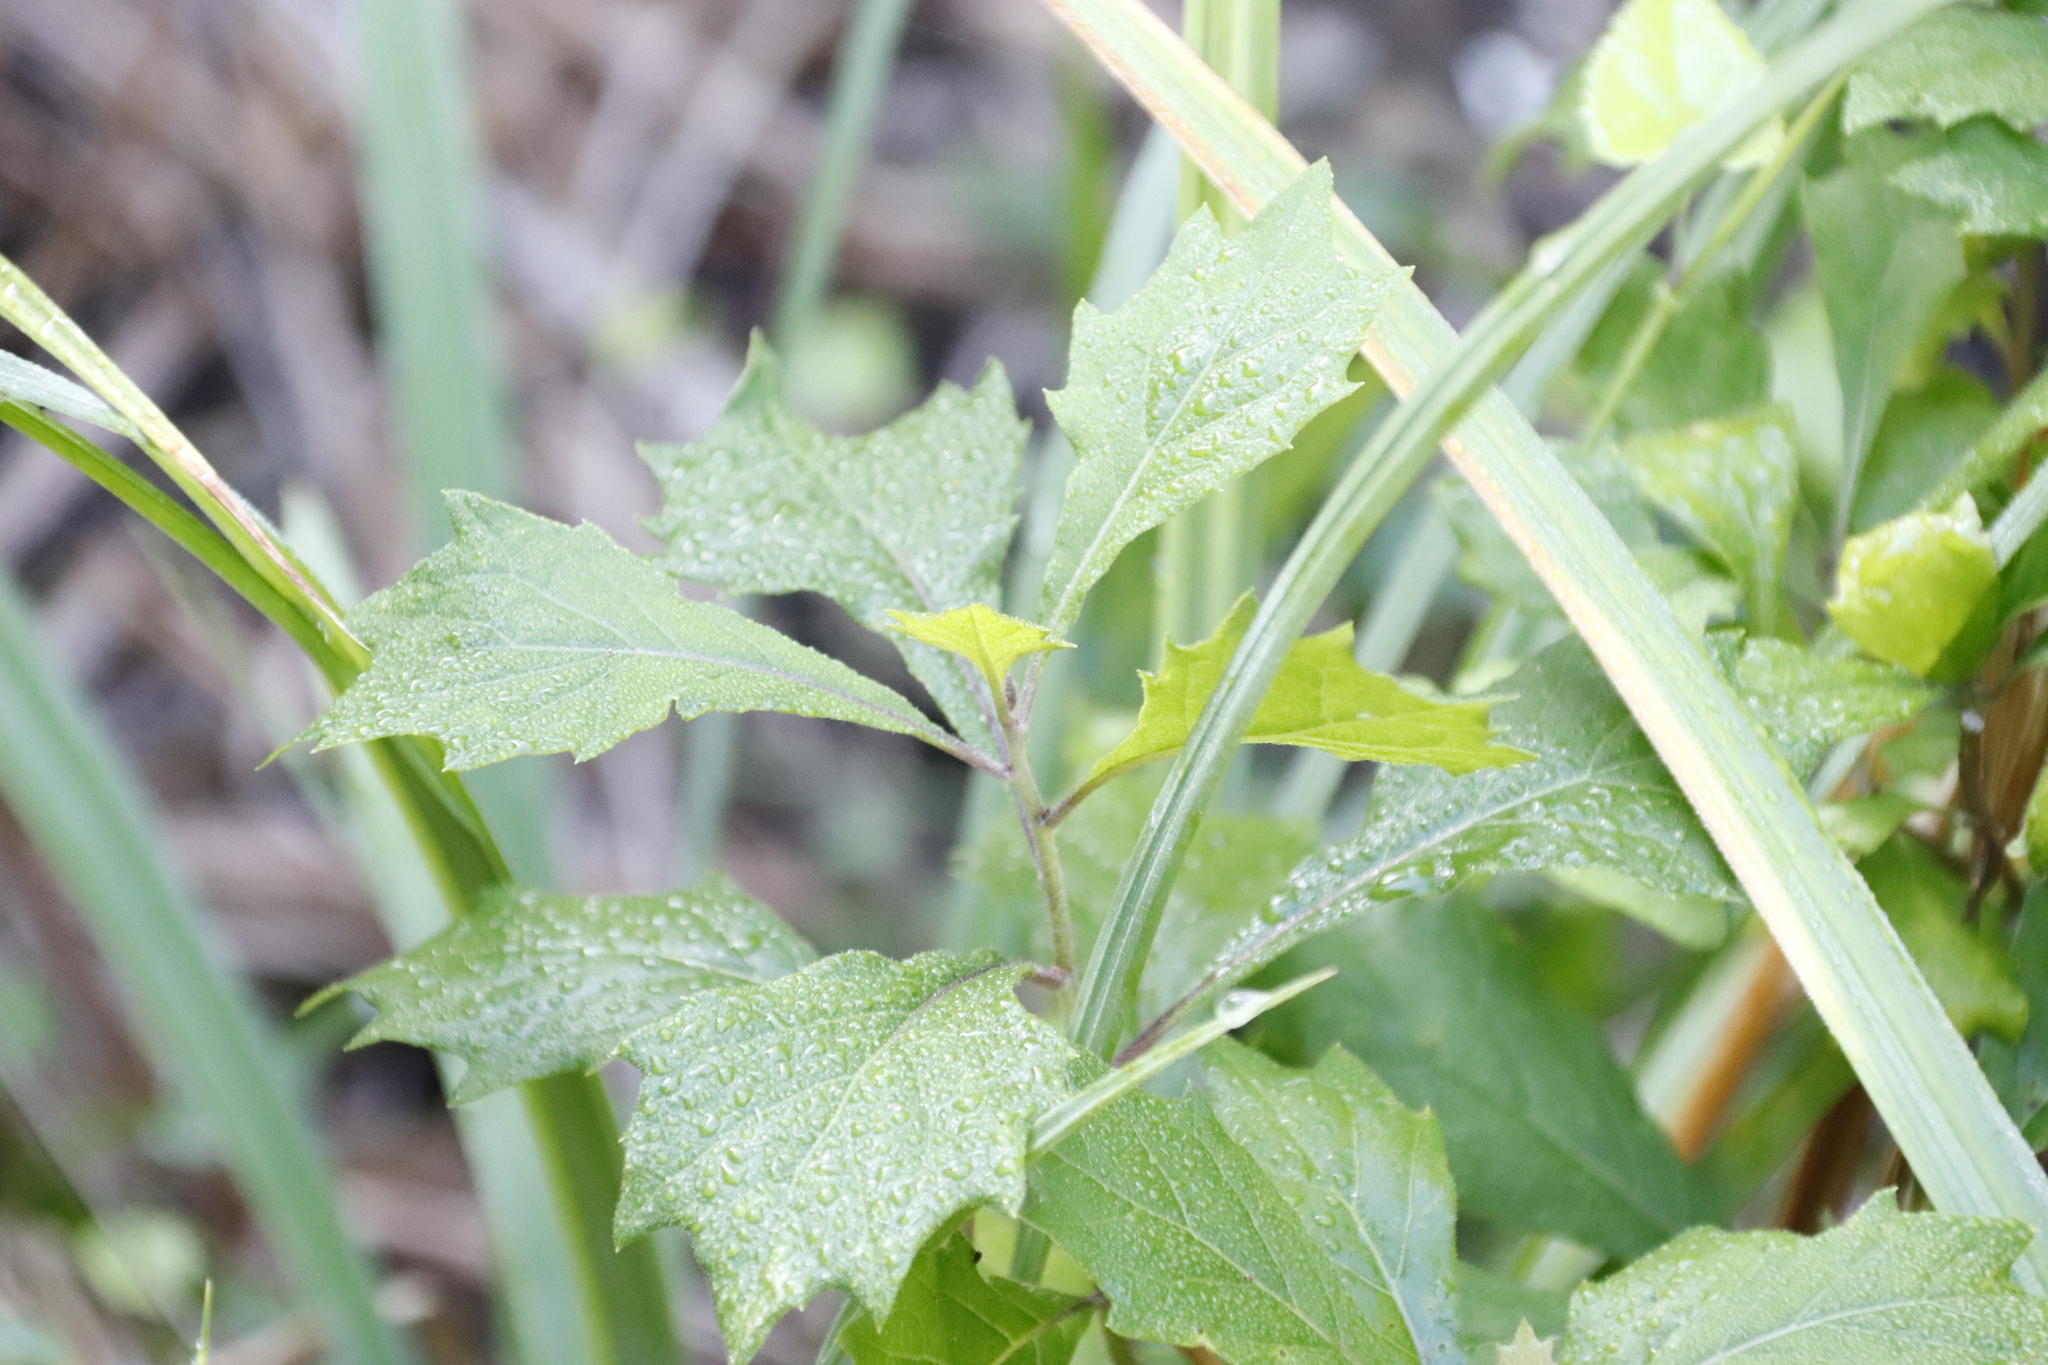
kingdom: Plantae
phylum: Tracheophyta
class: Magnoliopsida
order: Asterales
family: Asteraceae
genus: Gymnanthemum
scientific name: Gymnanthemum capense
